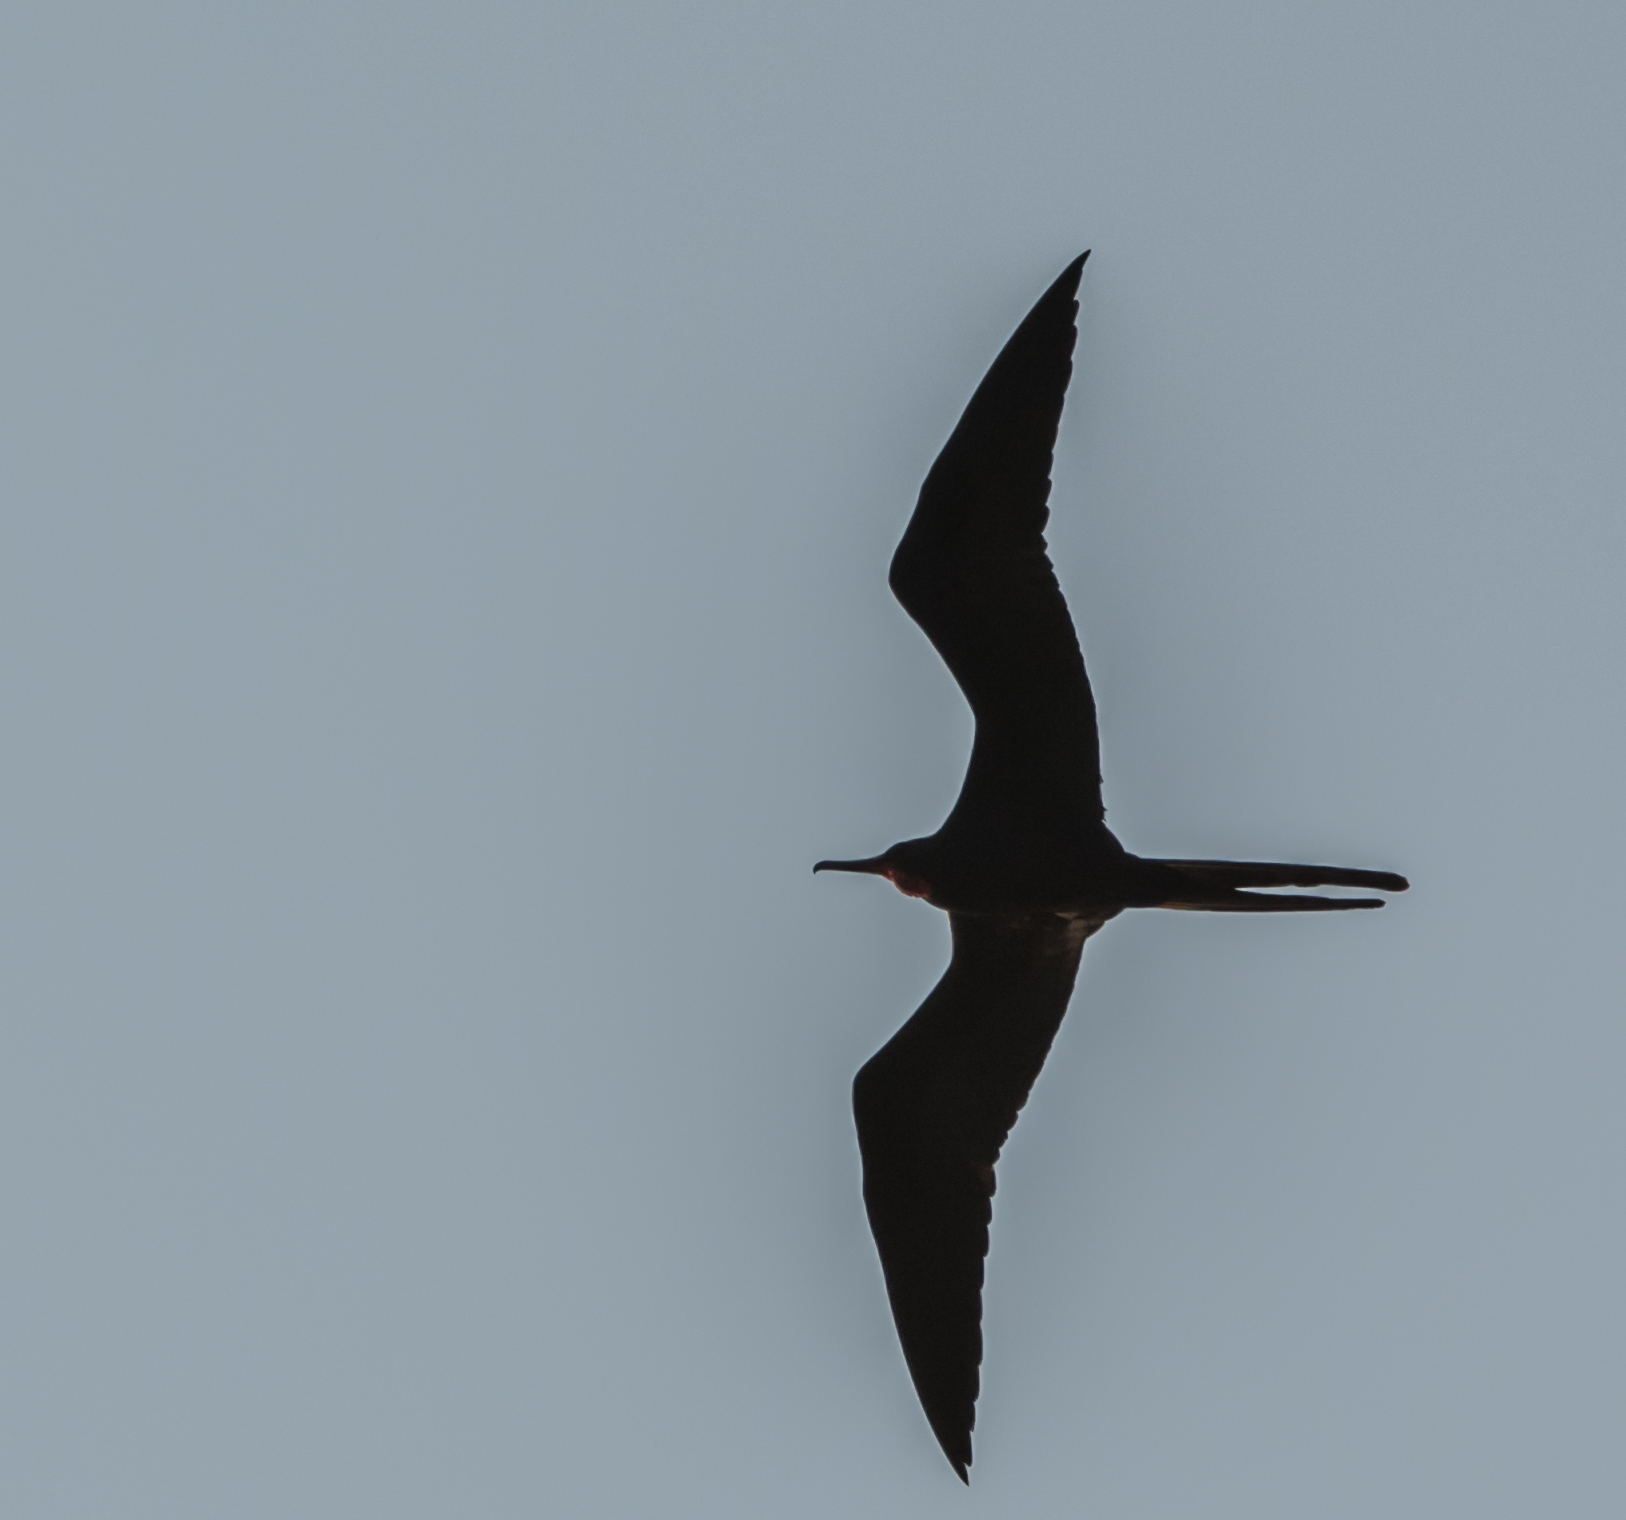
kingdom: Animalia
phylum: Chordata
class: Aves
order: Suliformes
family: Fregatidae
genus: Fregata
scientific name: Fregata magnificens
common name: Magnificent frigatebird
